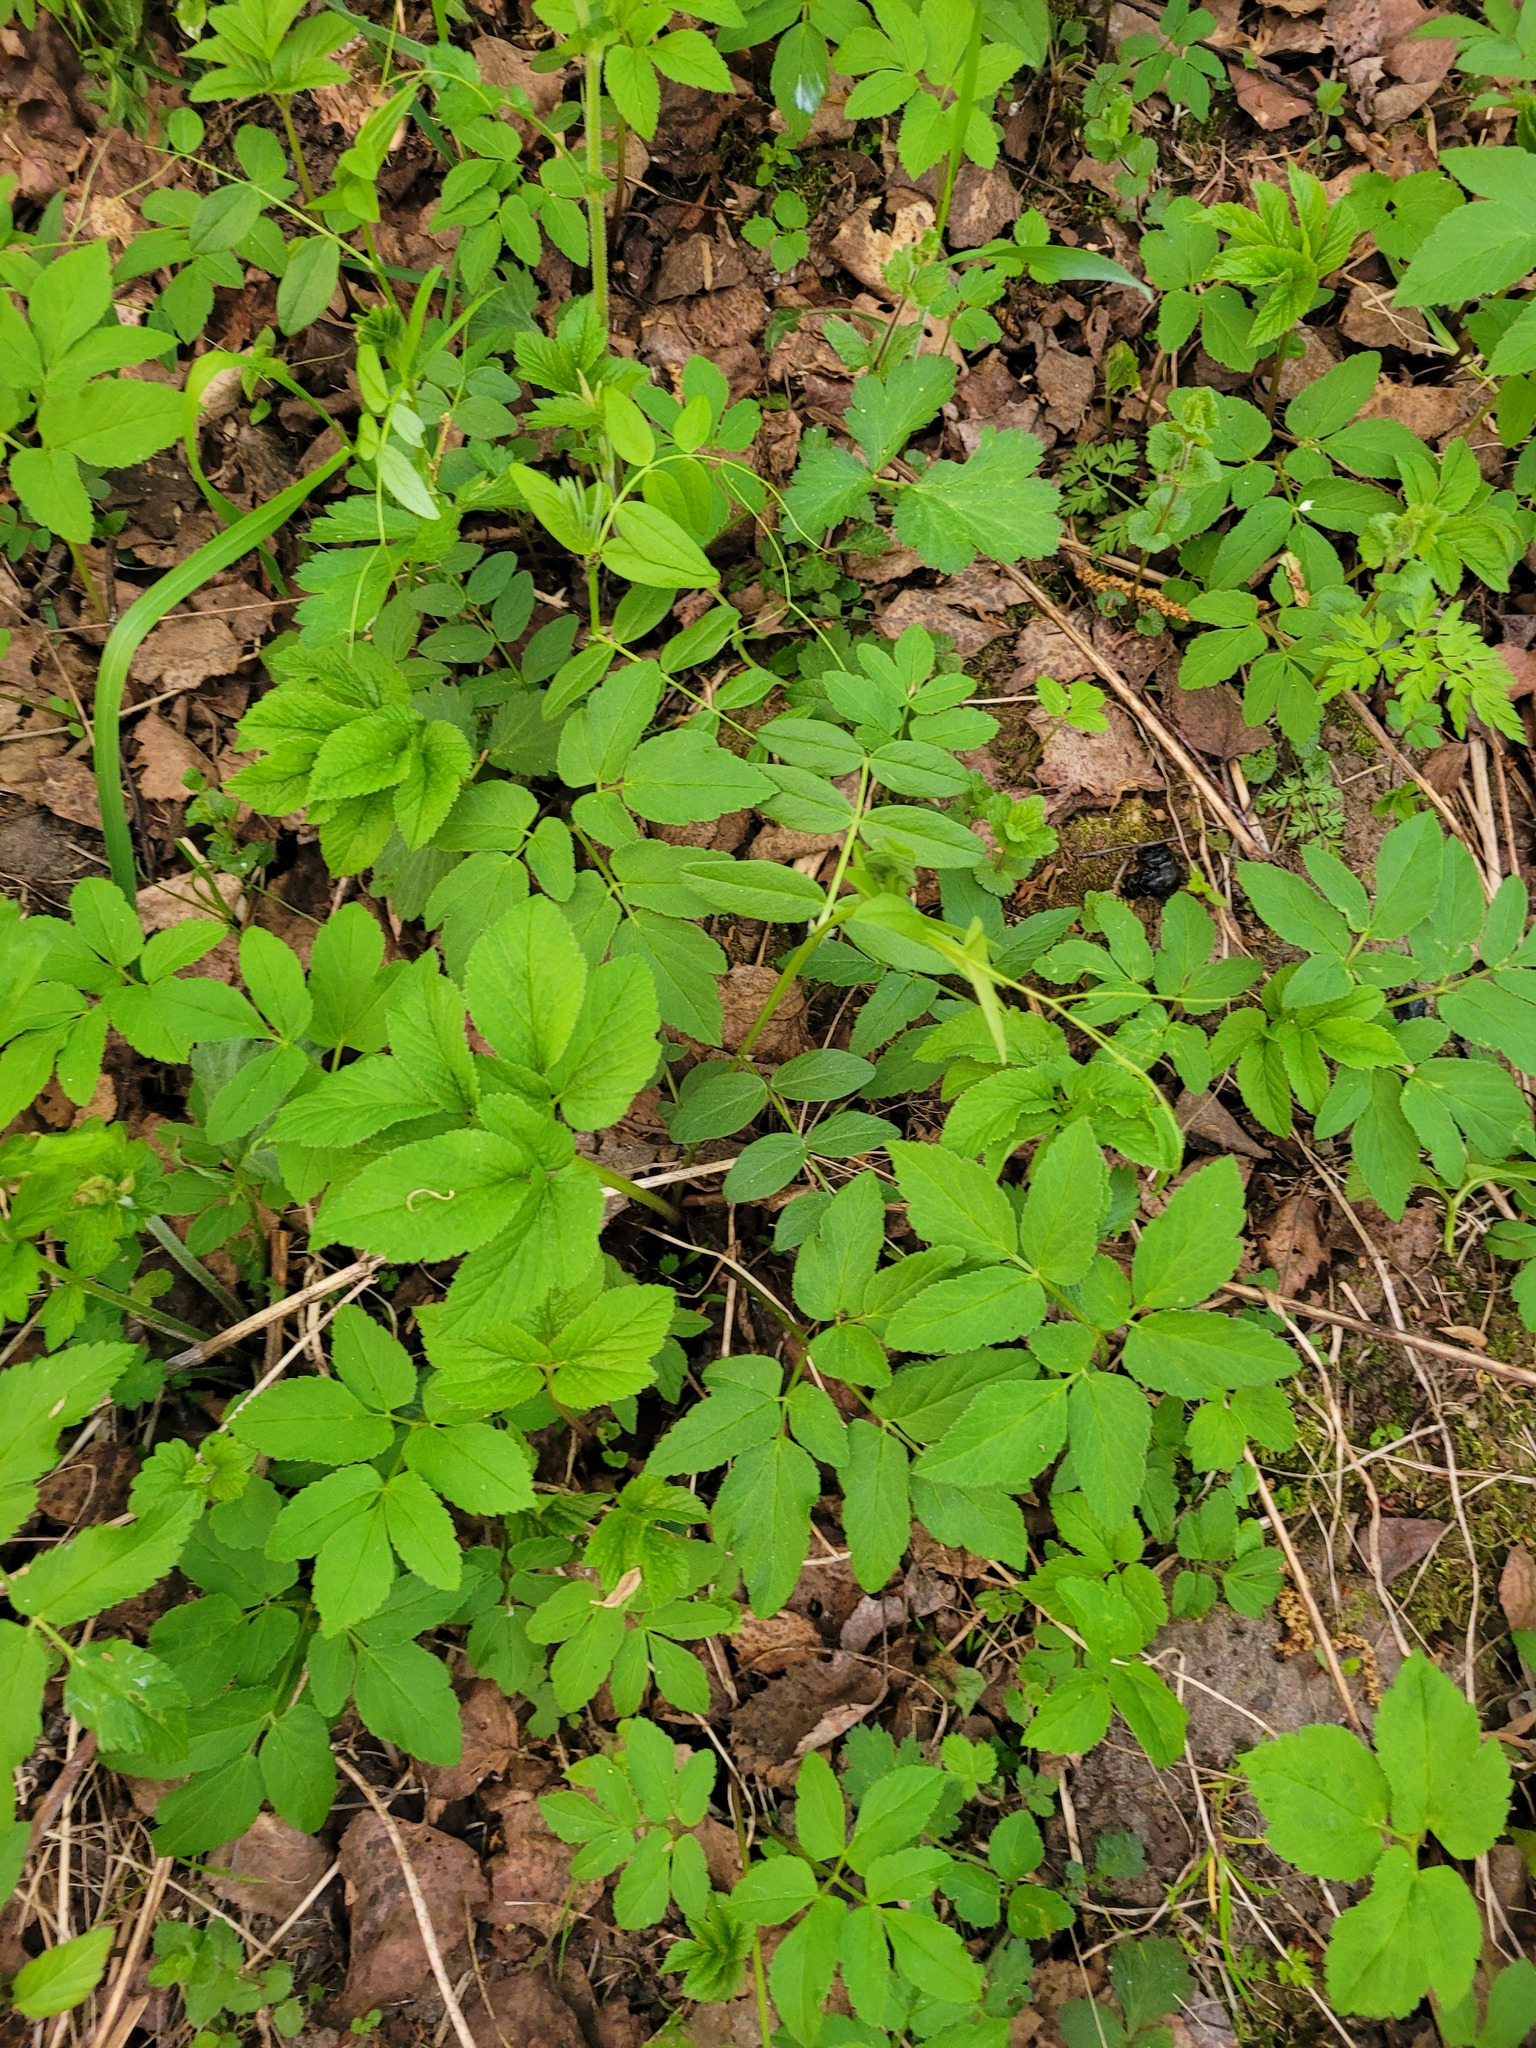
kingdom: Plantae
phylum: Tracheophyta
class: Magnoliopsida
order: Fabales
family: Fabaceae
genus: Vicia
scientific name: Vicia sepium
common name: Bush vetch
